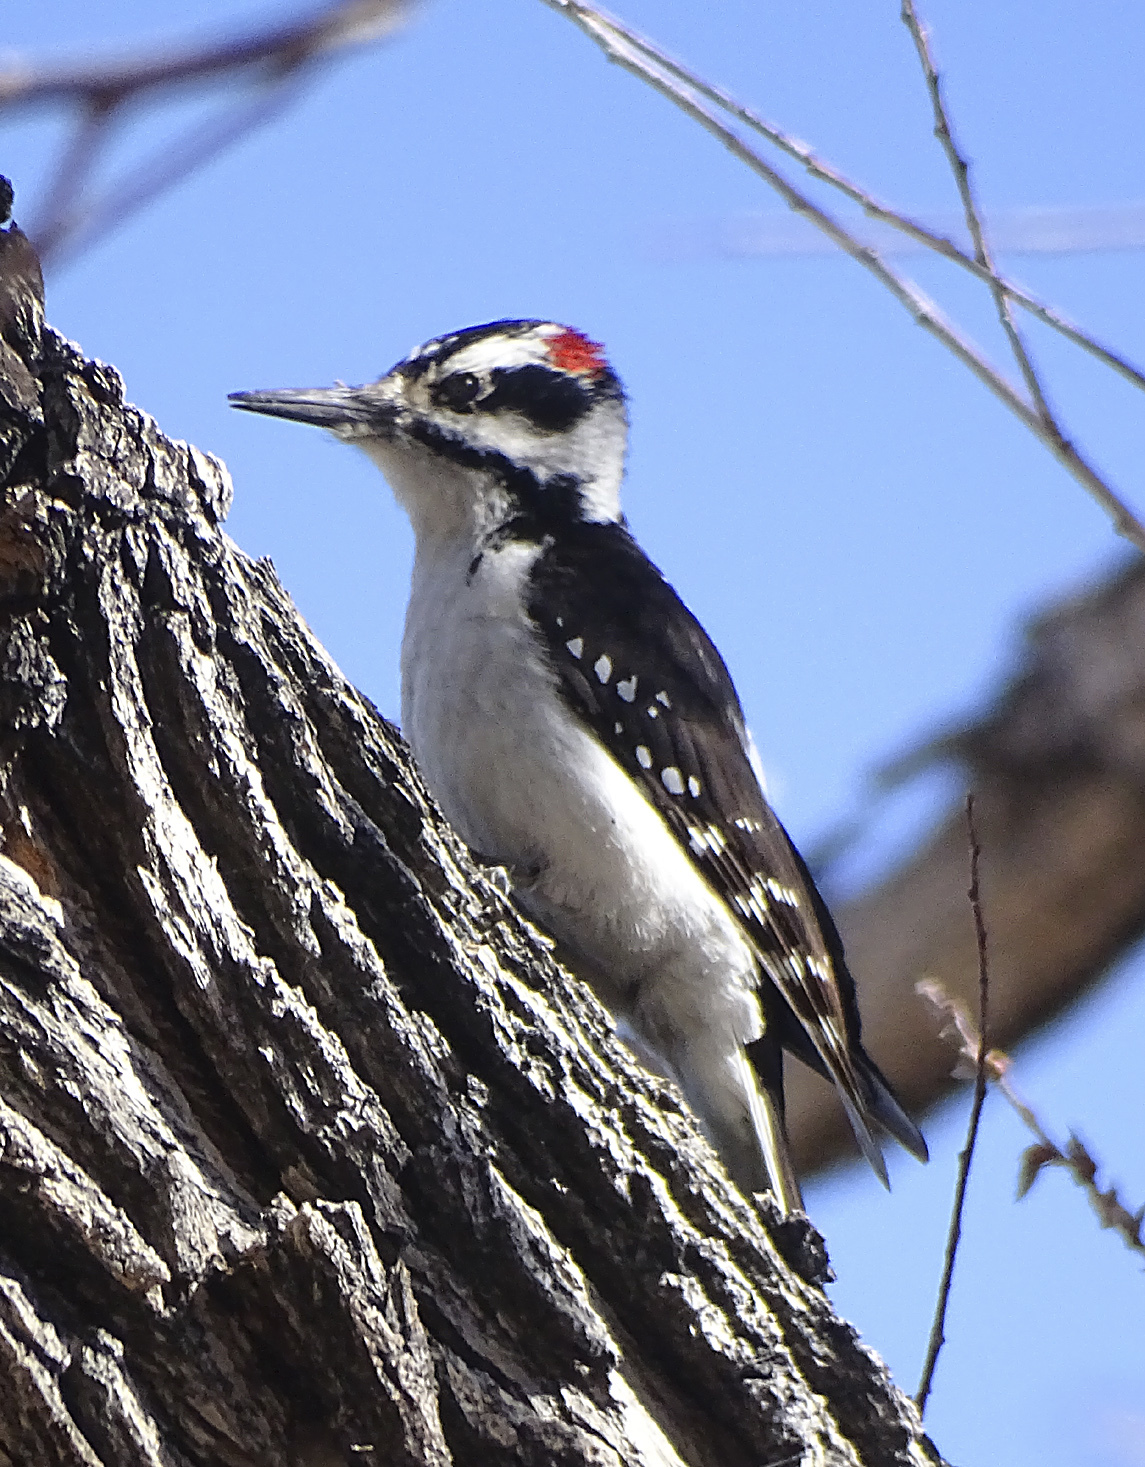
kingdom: Animalia
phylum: Chordata
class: Aves
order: Piciformes
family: Picidae
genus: Leuconotopicus
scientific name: Leuconotopicus villosus
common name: Hairy woodpecker
